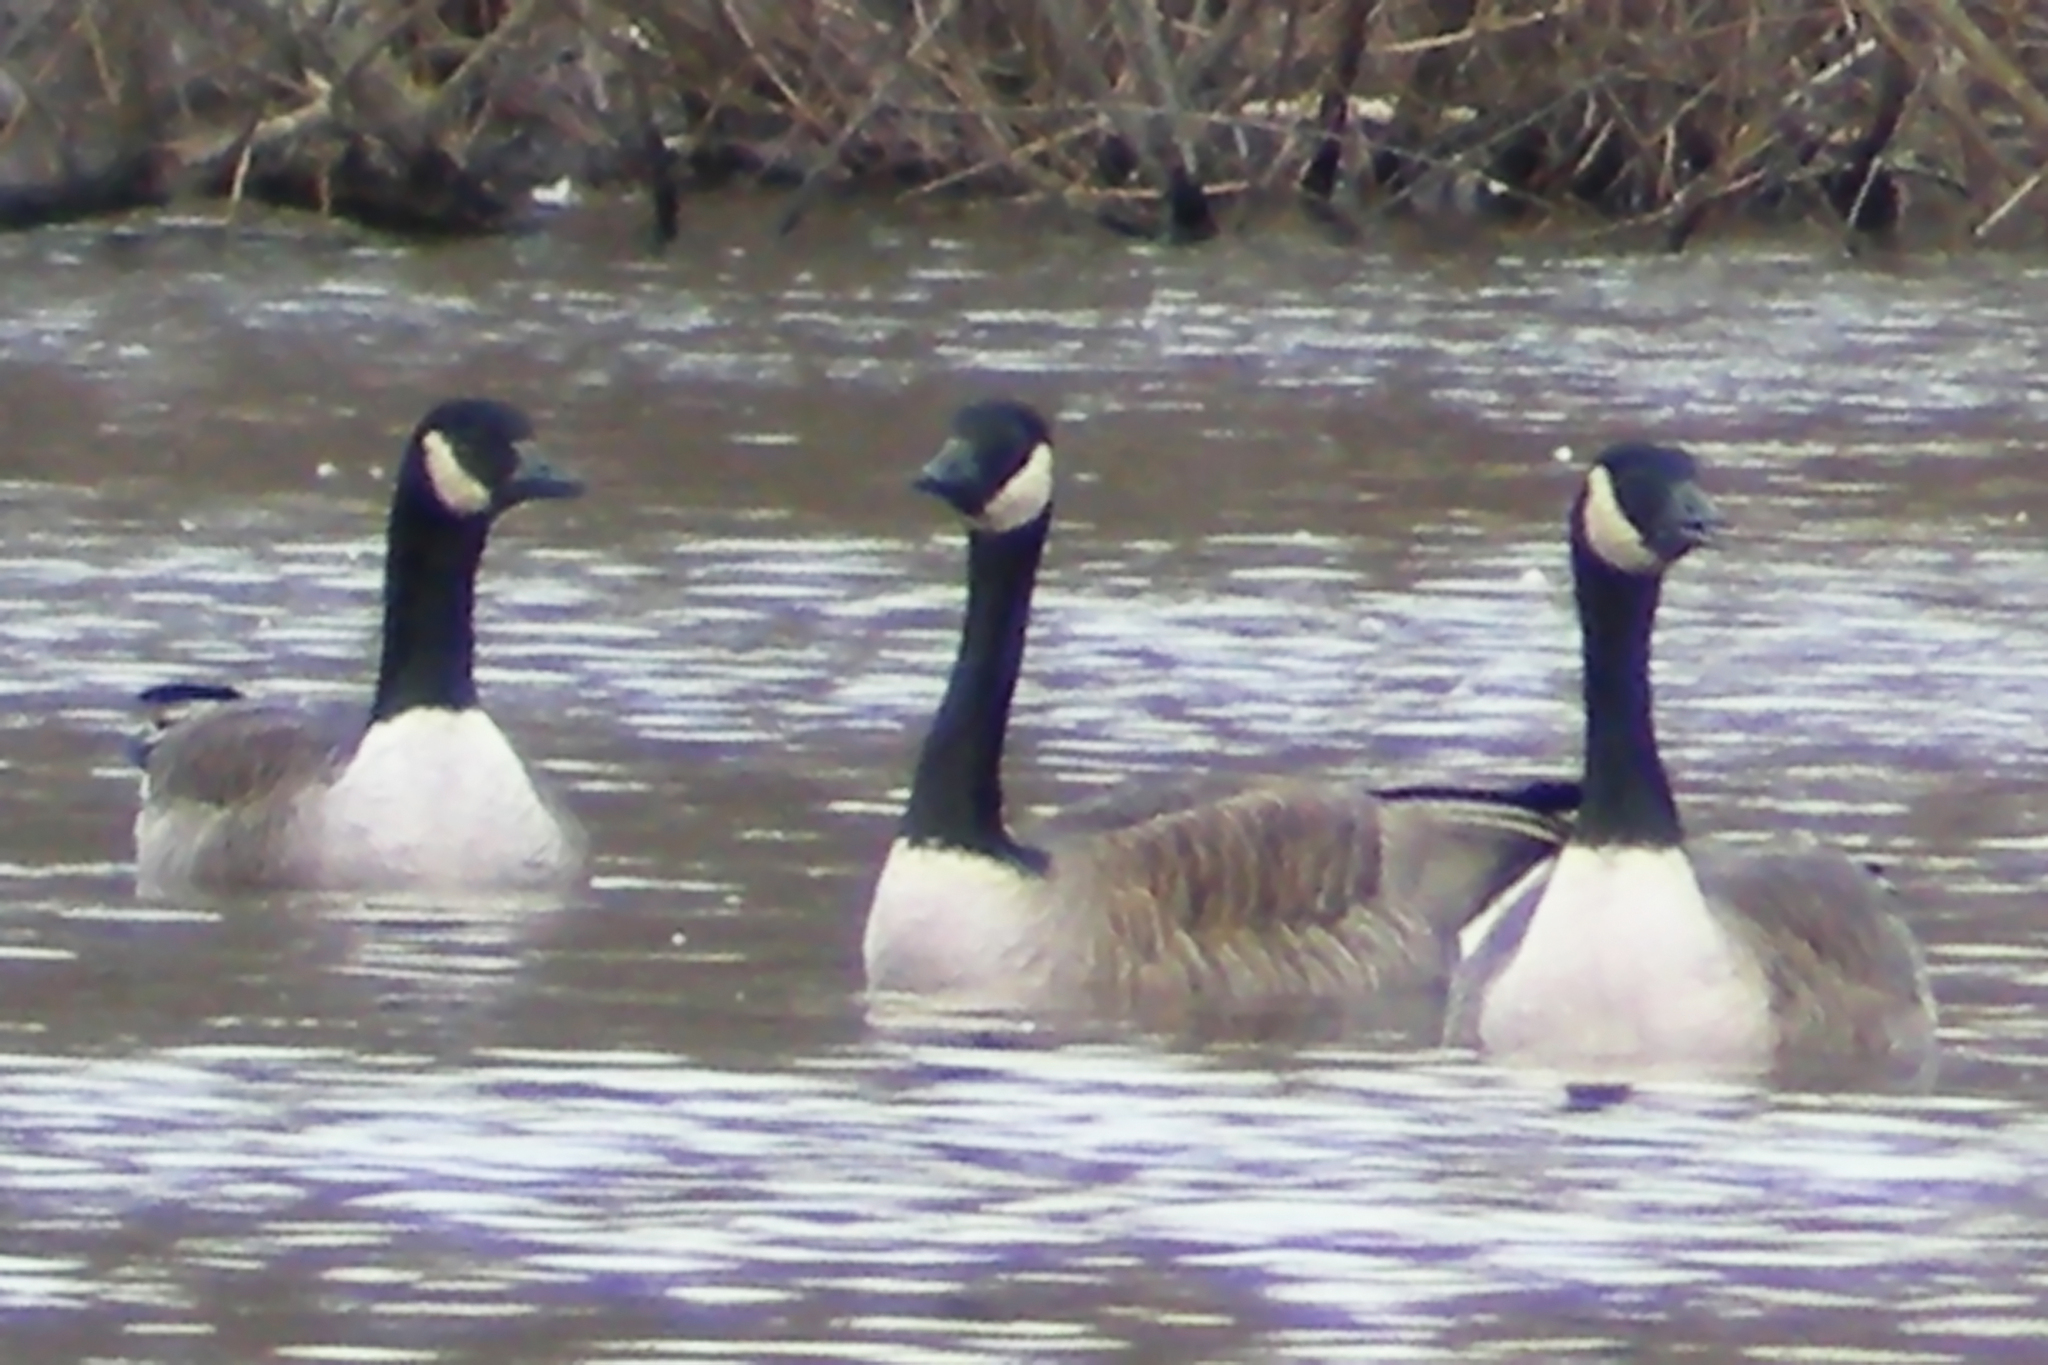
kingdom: Animalia
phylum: Chordata
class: Aves
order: Anseriformes
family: Anatidae
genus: Branta
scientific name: Branta canadensis
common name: Canada goose
